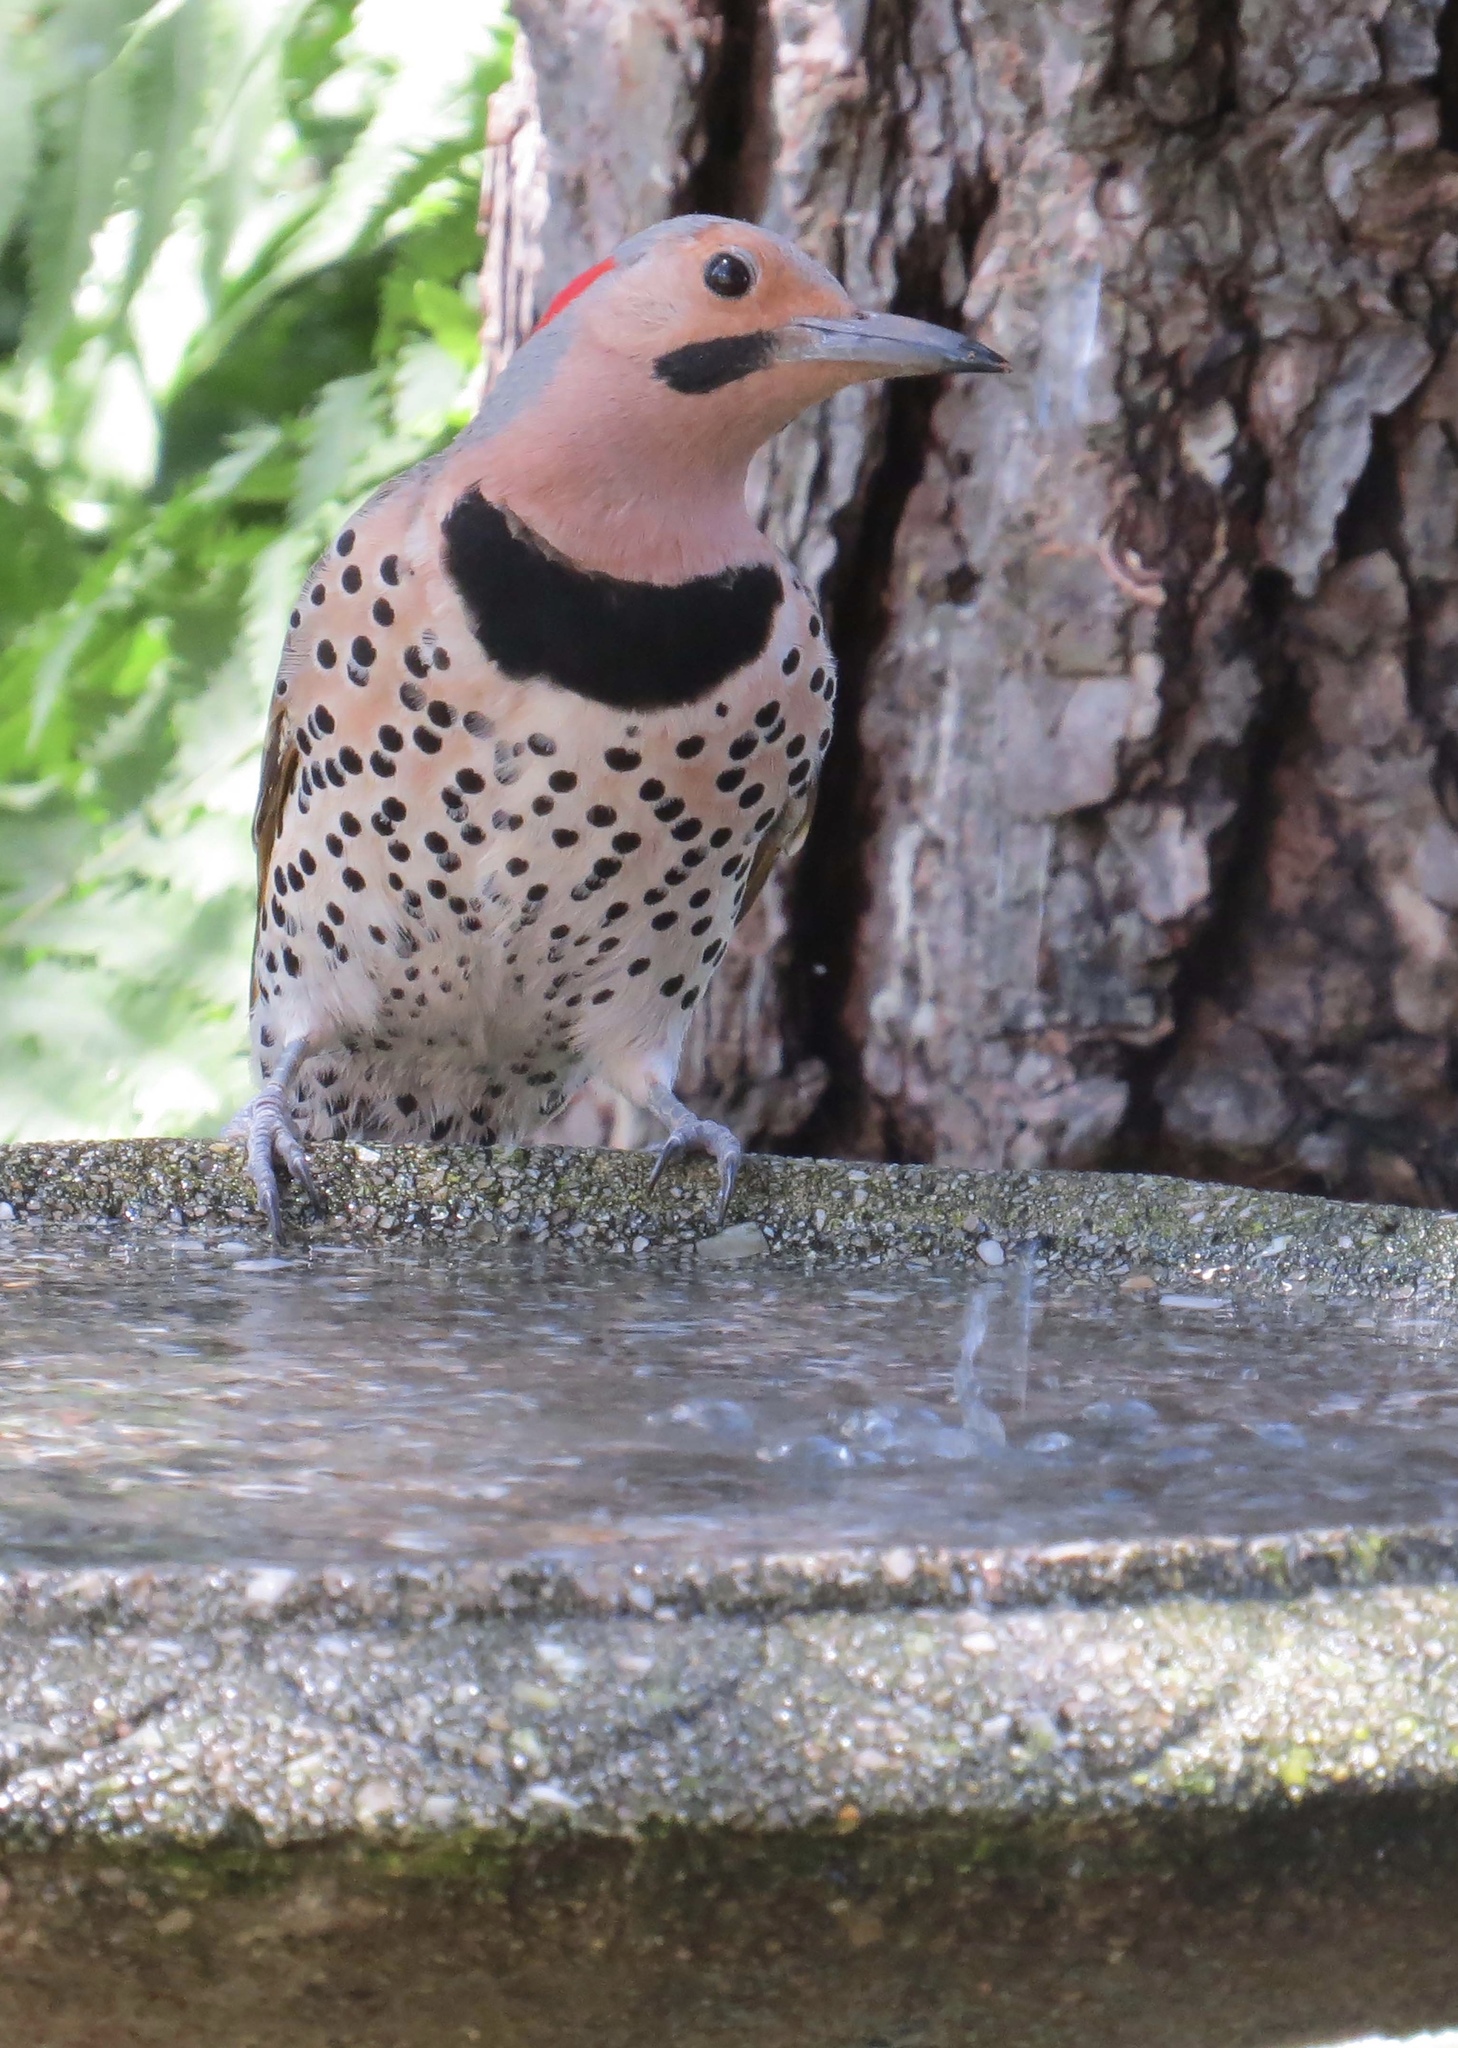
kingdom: Animalia
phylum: Chordata
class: Aves
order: Piciformes
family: Picidae
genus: Colaptes
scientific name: Colaptes auratus
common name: Northern flicker
